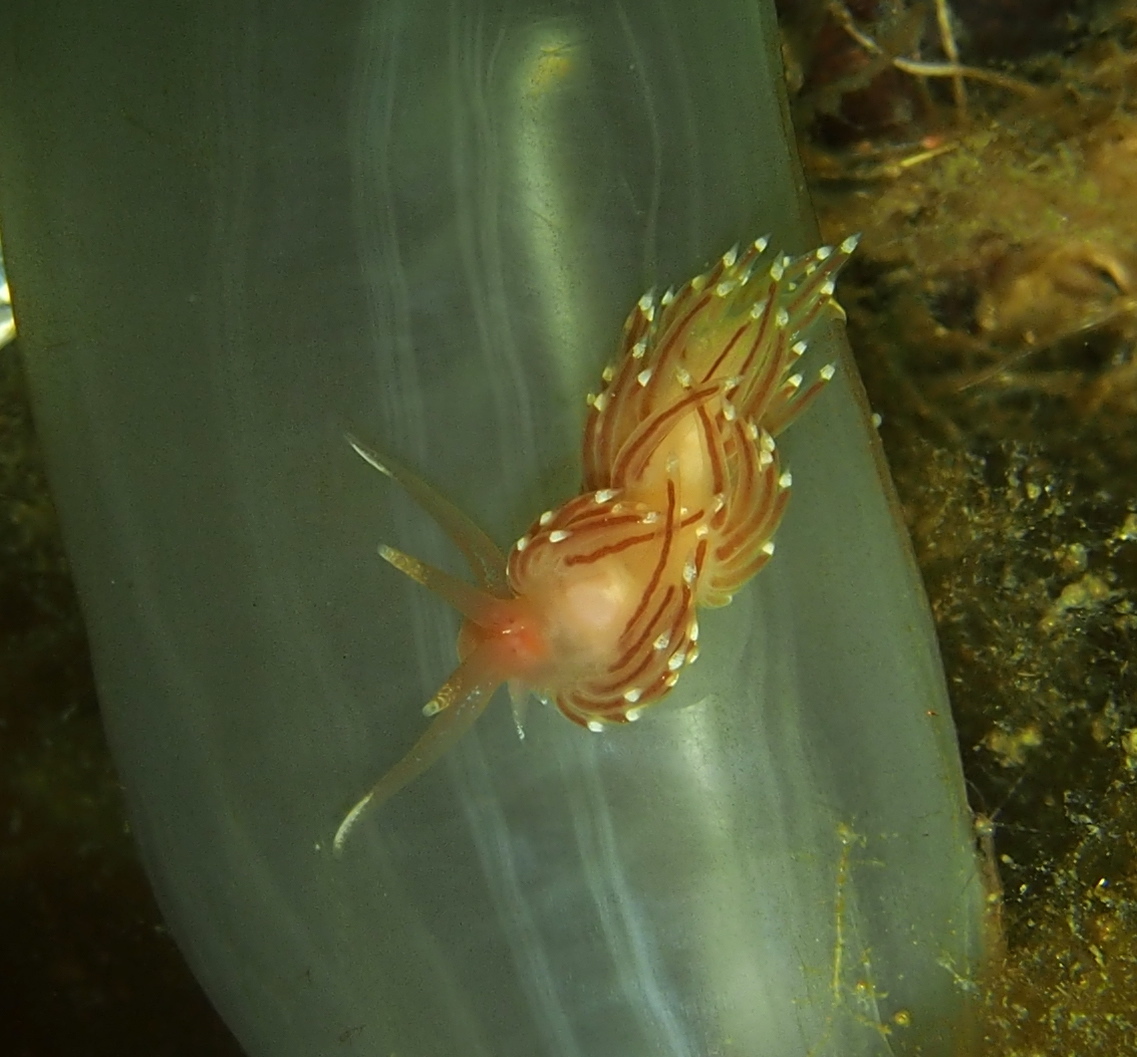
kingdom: Animalia
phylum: Mollusca
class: Gastropoda
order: Nudibranchia
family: Facelinidae
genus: Facelina
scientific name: Facelina bostoniensis
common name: Boston facelina
